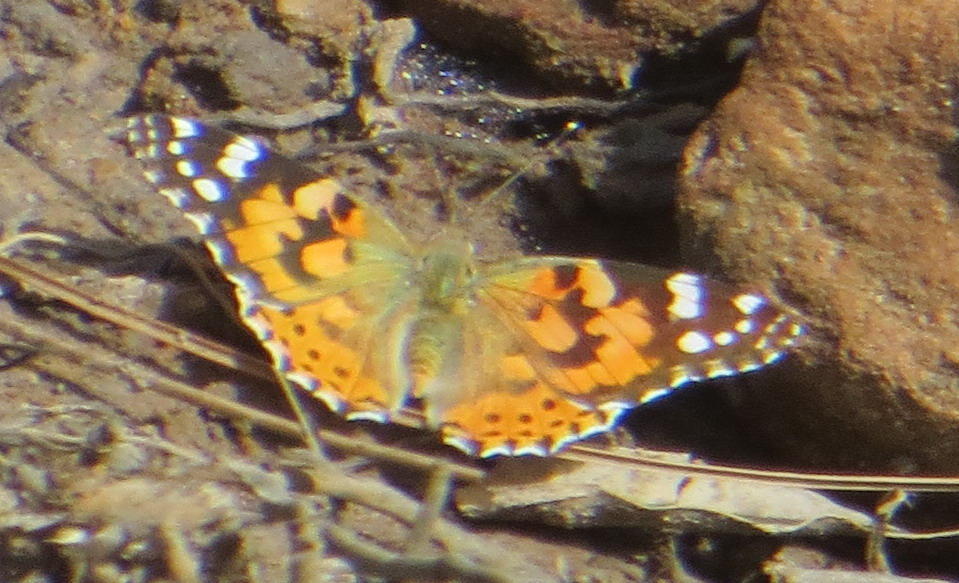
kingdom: Animalia
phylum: Arthropoda
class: Insecta
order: Lepidoptera
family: Nymphalidae
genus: Vanessa
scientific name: Vanessa cardui
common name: Painted lady
